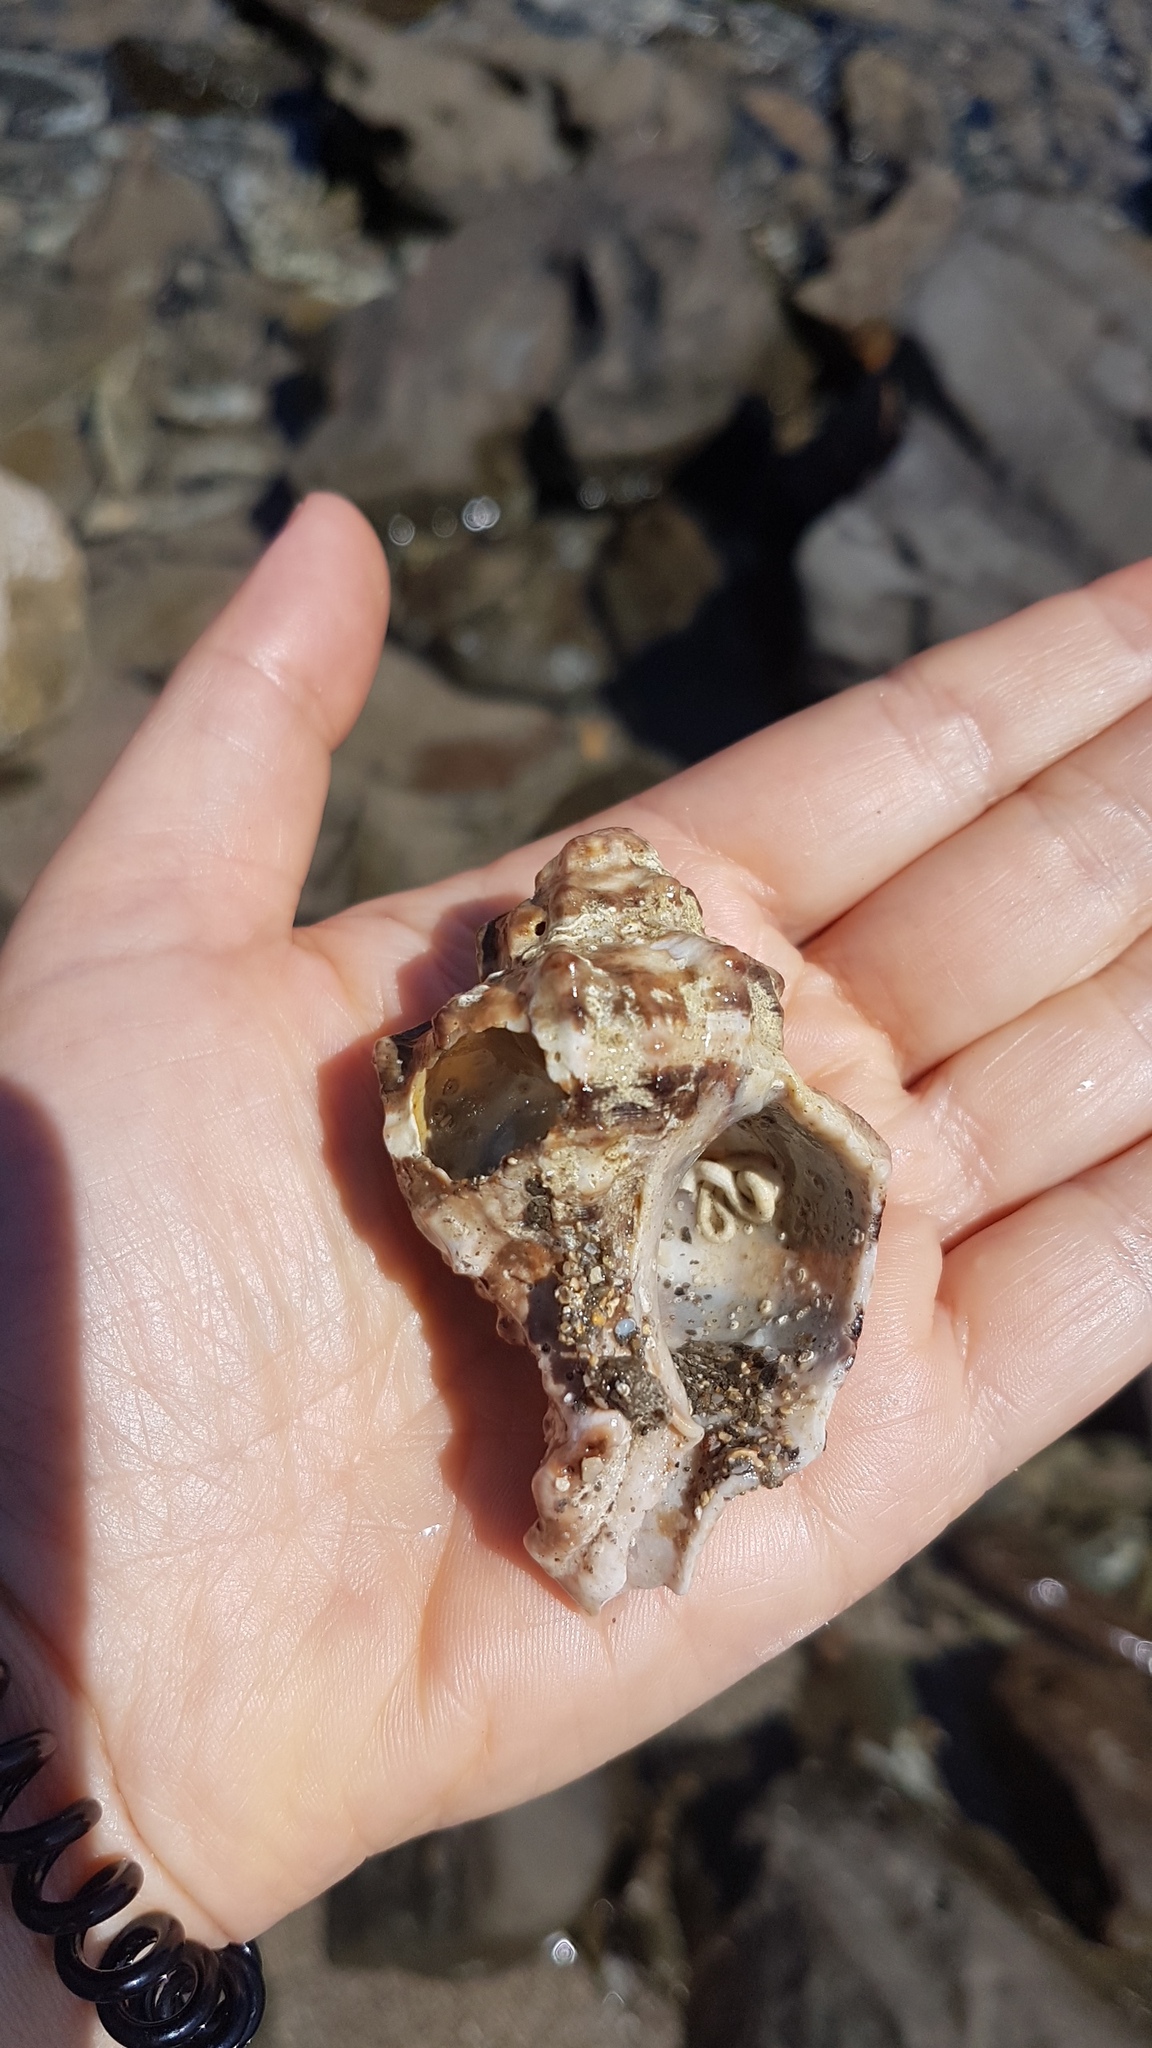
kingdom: Animalia
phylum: Mollusca
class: Gastropoda
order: Neogastropoda
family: Muricidae
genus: Hexaplex
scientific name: Hexaplex trunculus
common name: Banded dye-murex
